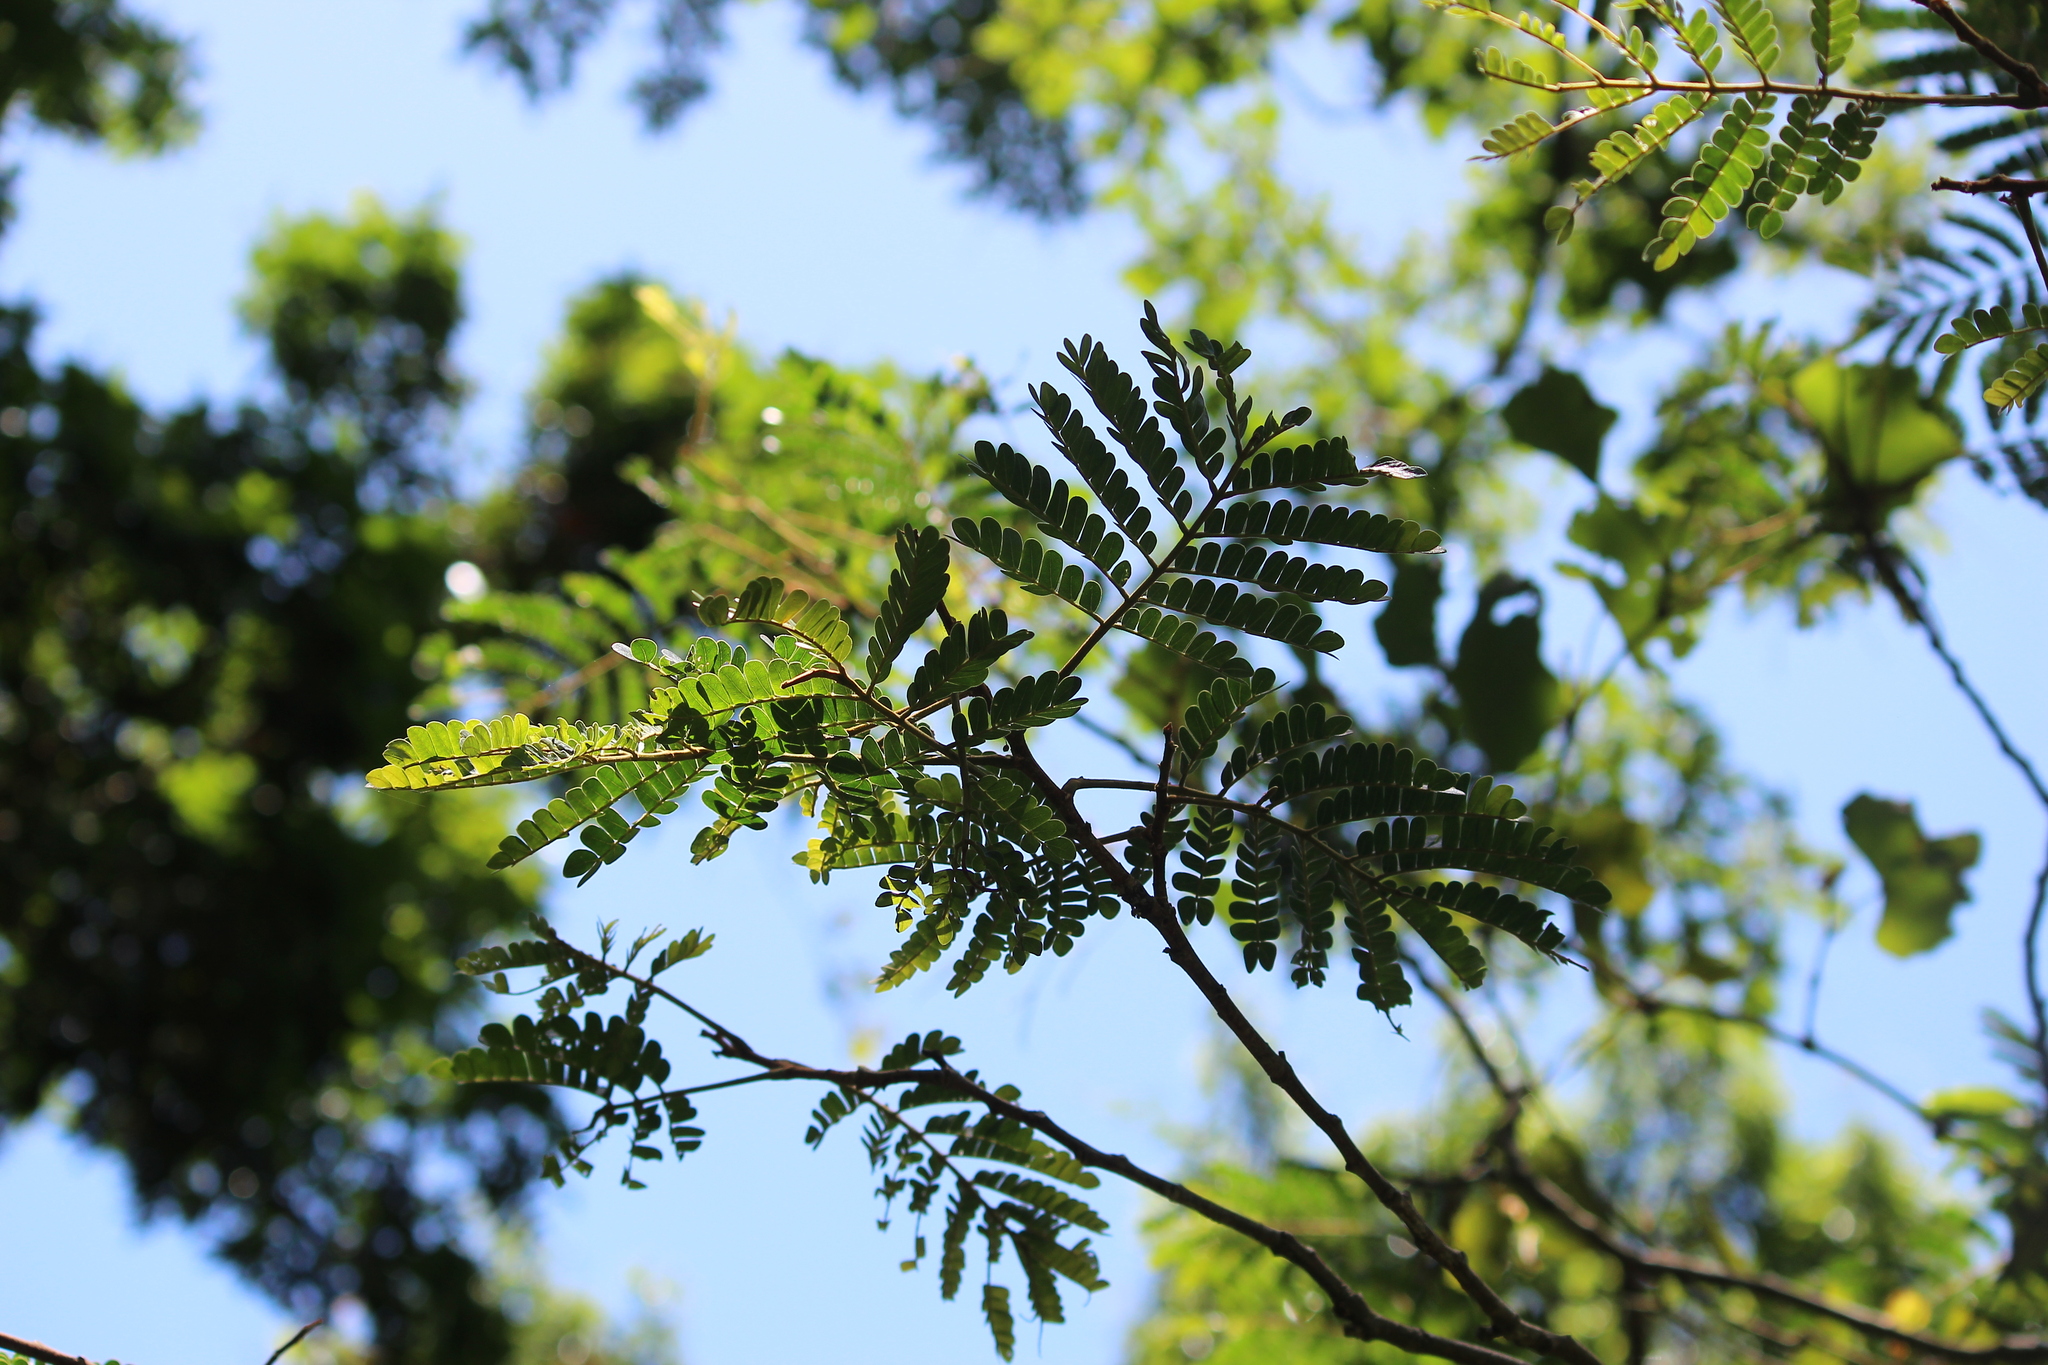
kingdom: Plantae
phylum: Tracheophyta
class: Magnoliopsida
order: Fabales
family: Fabaceae
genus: Albizia
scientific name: Albizia adianthifolia
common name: West african albizia
